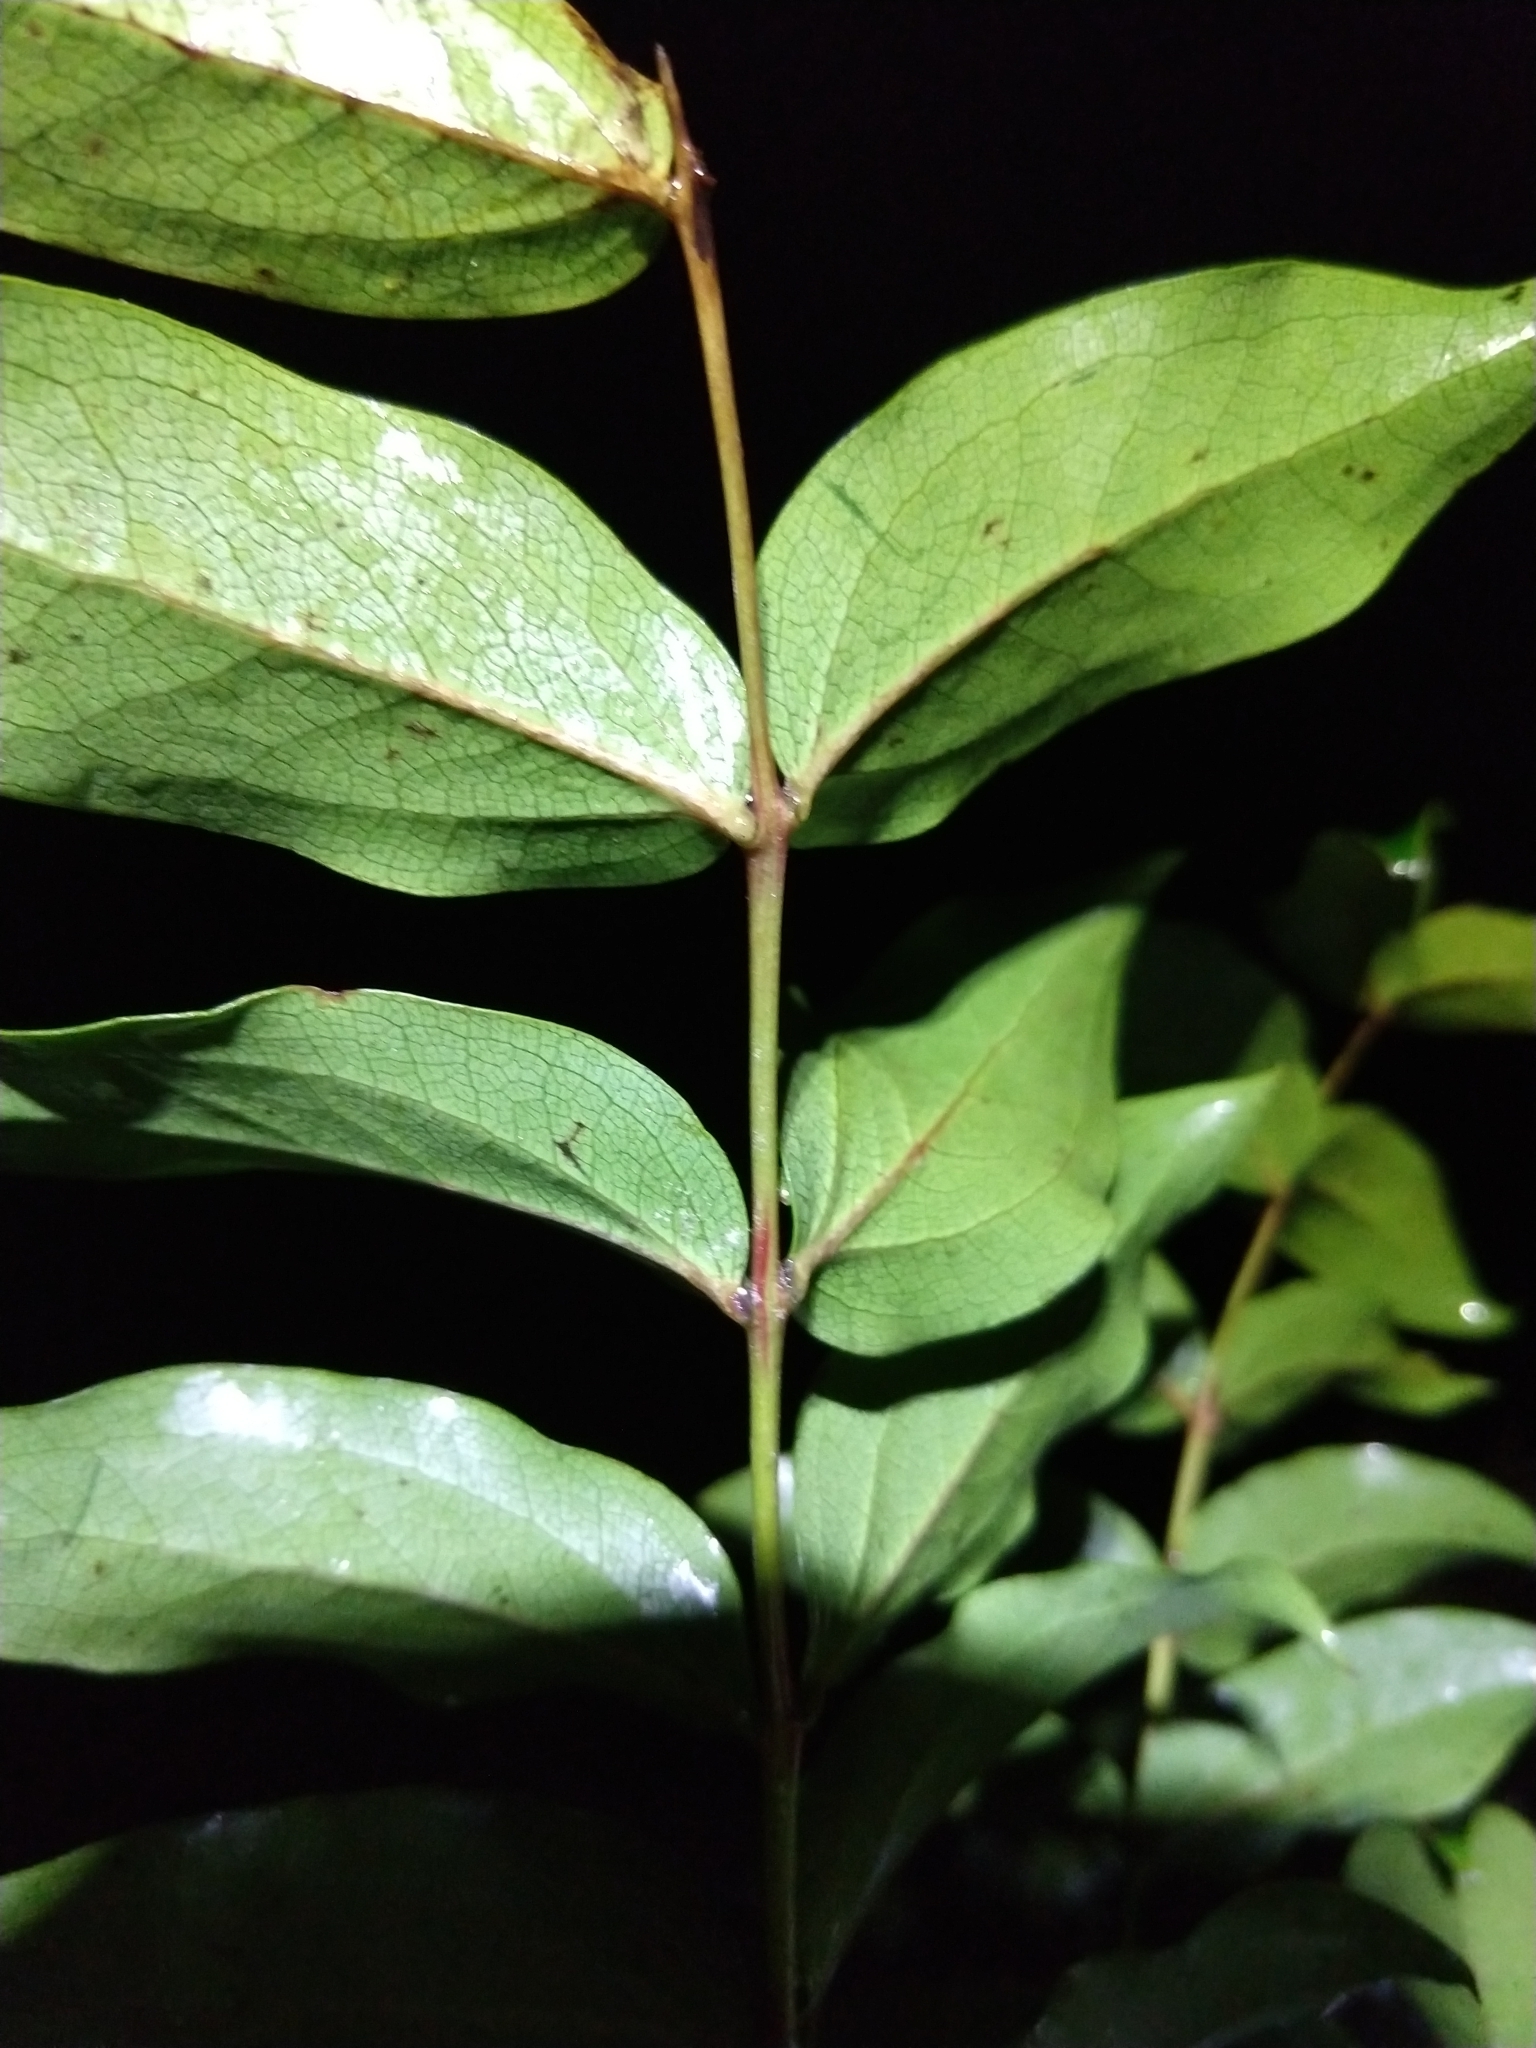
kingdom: Plantae
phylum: Tracheophyta
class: Magnoliopsida
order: Cucurbitales
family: Coriariaceae
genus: Coriaria
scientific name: Coriaria arborea
